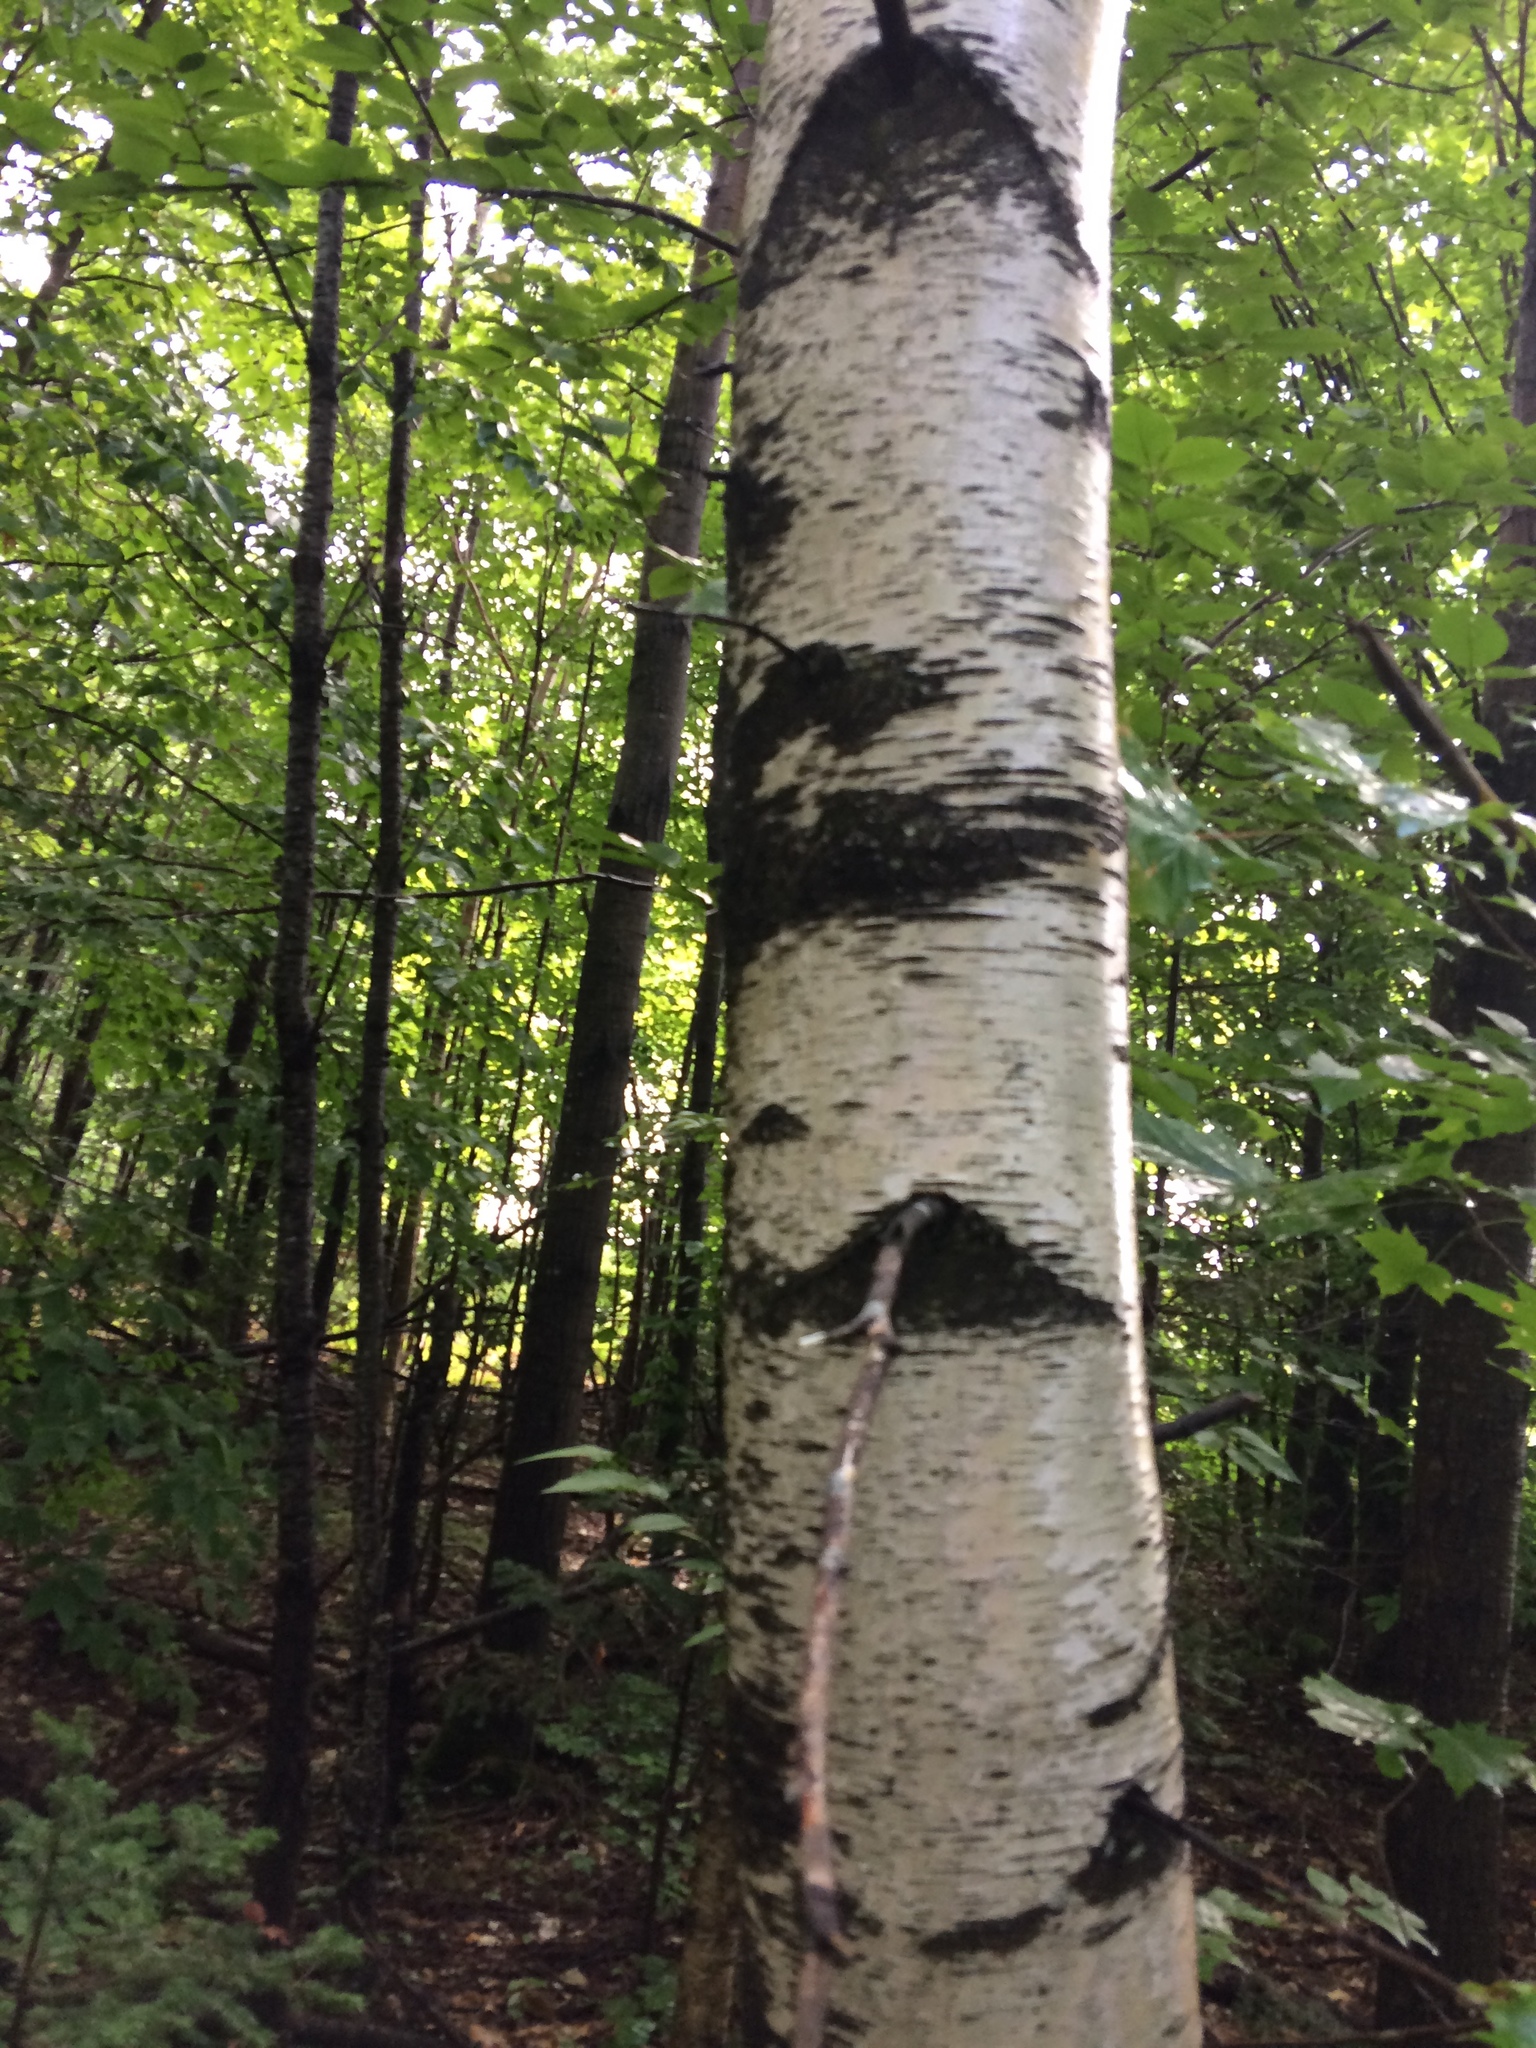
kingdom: Plantae
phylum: Tracheophyta
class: Magnoliopsida
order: Fagales
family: Betulaceae
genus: Betula
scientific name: Betula populifolia
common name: Fire birch
